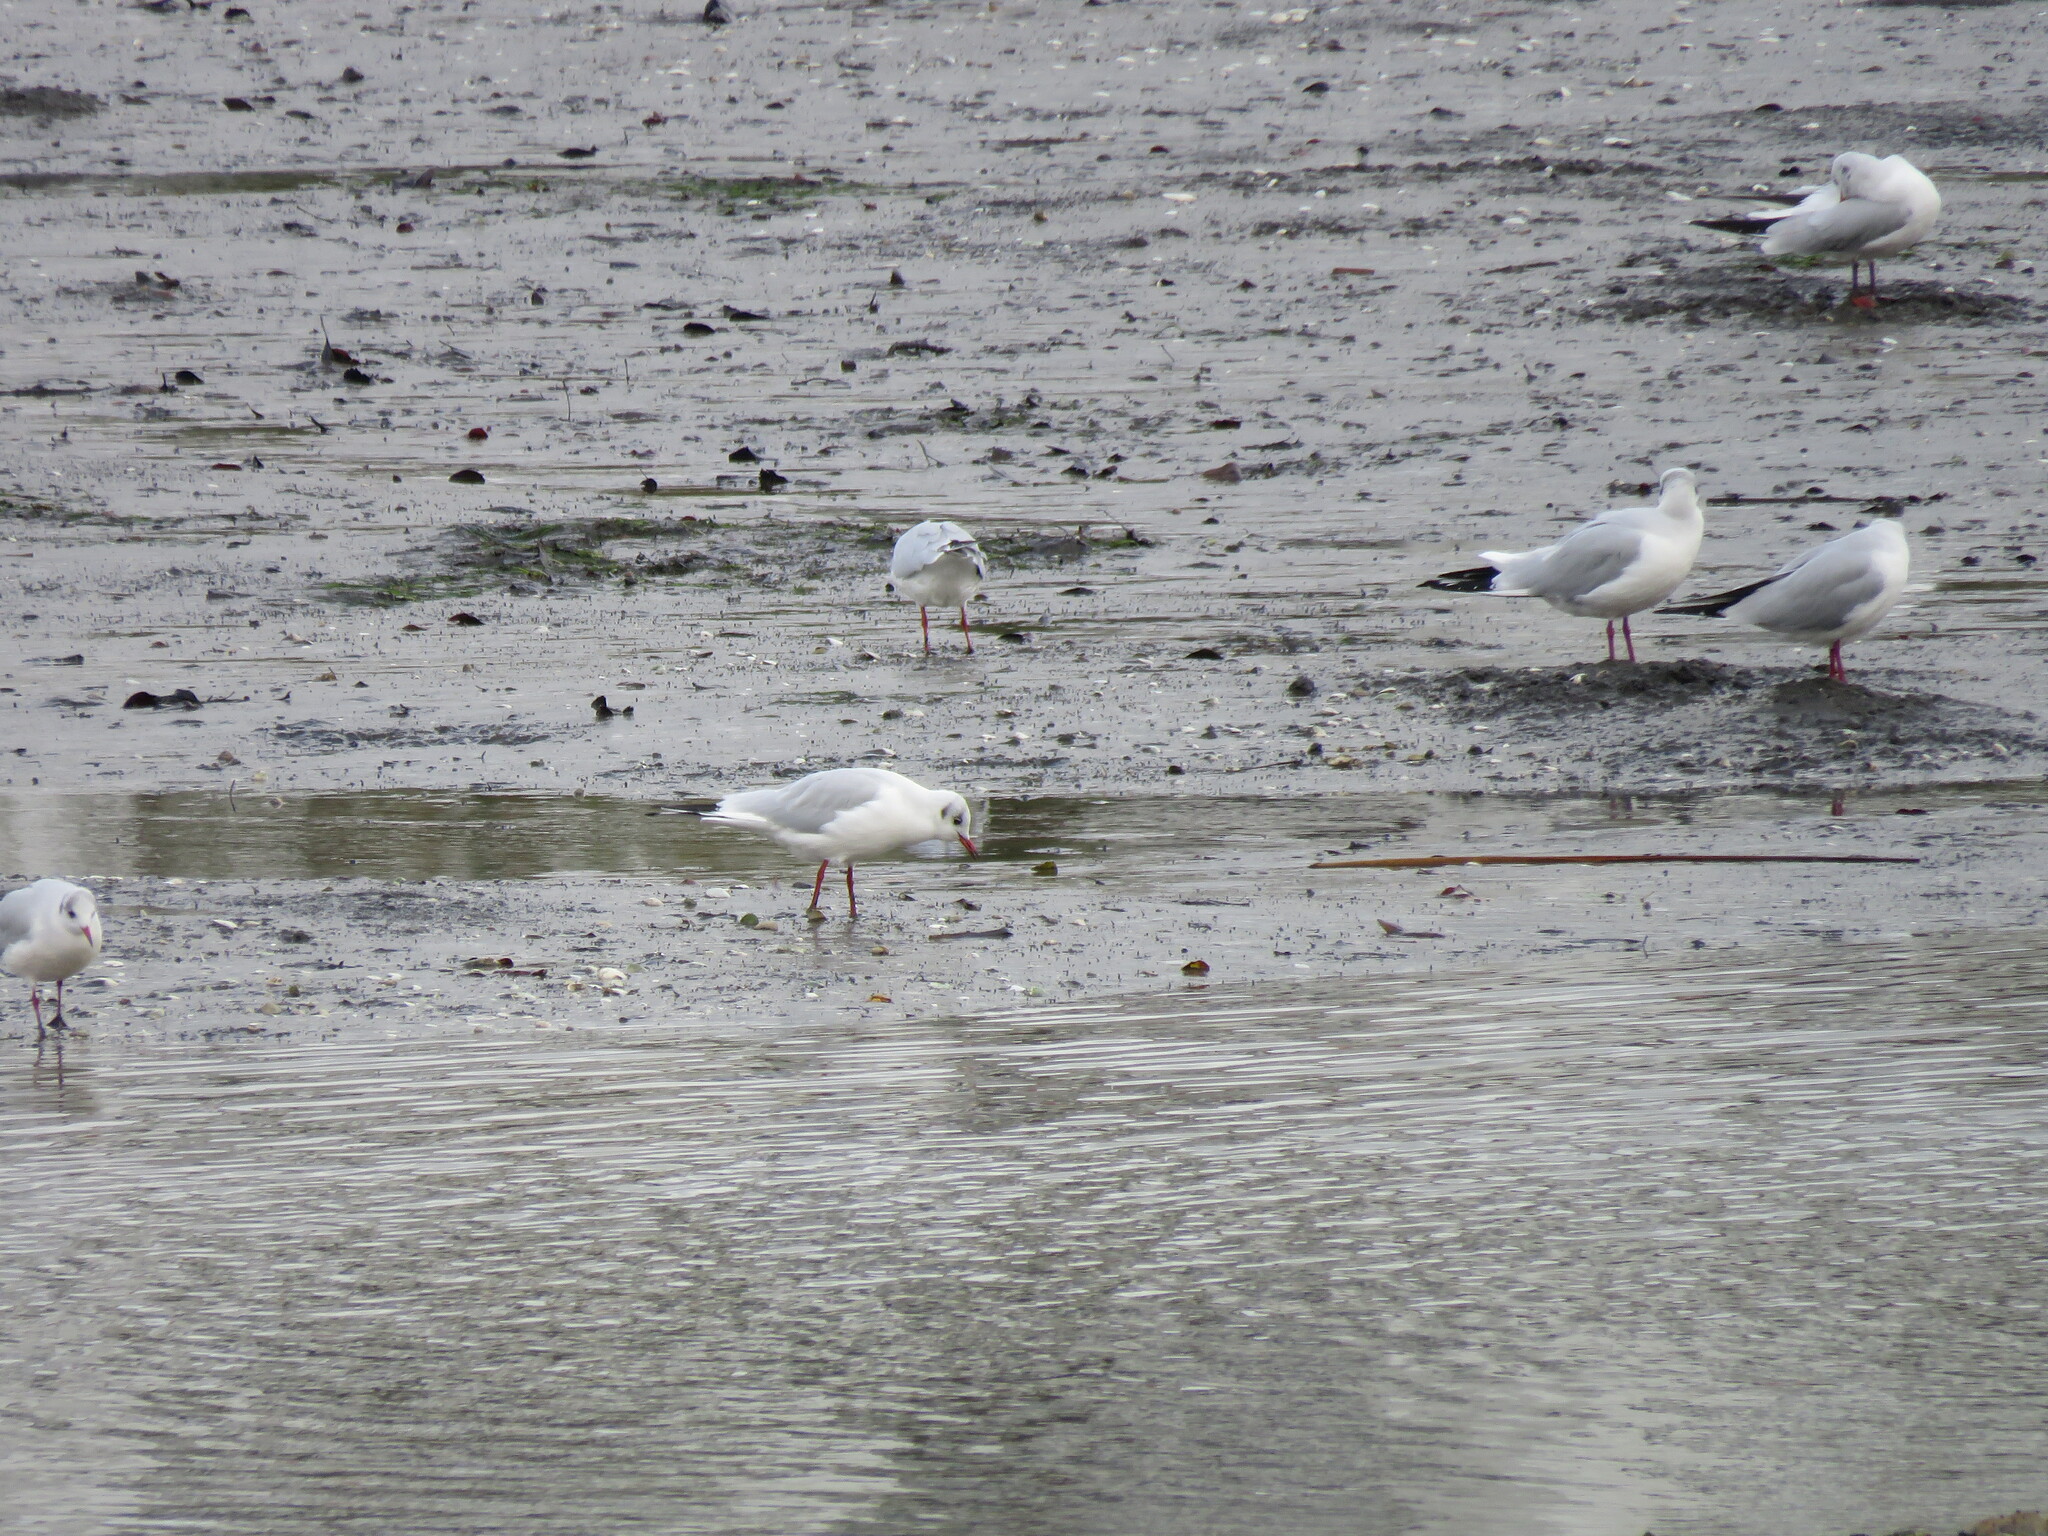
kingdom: Animalia
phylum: Chordata
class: Aves
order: Charadriiformes
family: Laridae
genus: Chroicocephalus
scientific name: Chroicocephalus ridibundus
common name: Black-headed gull
